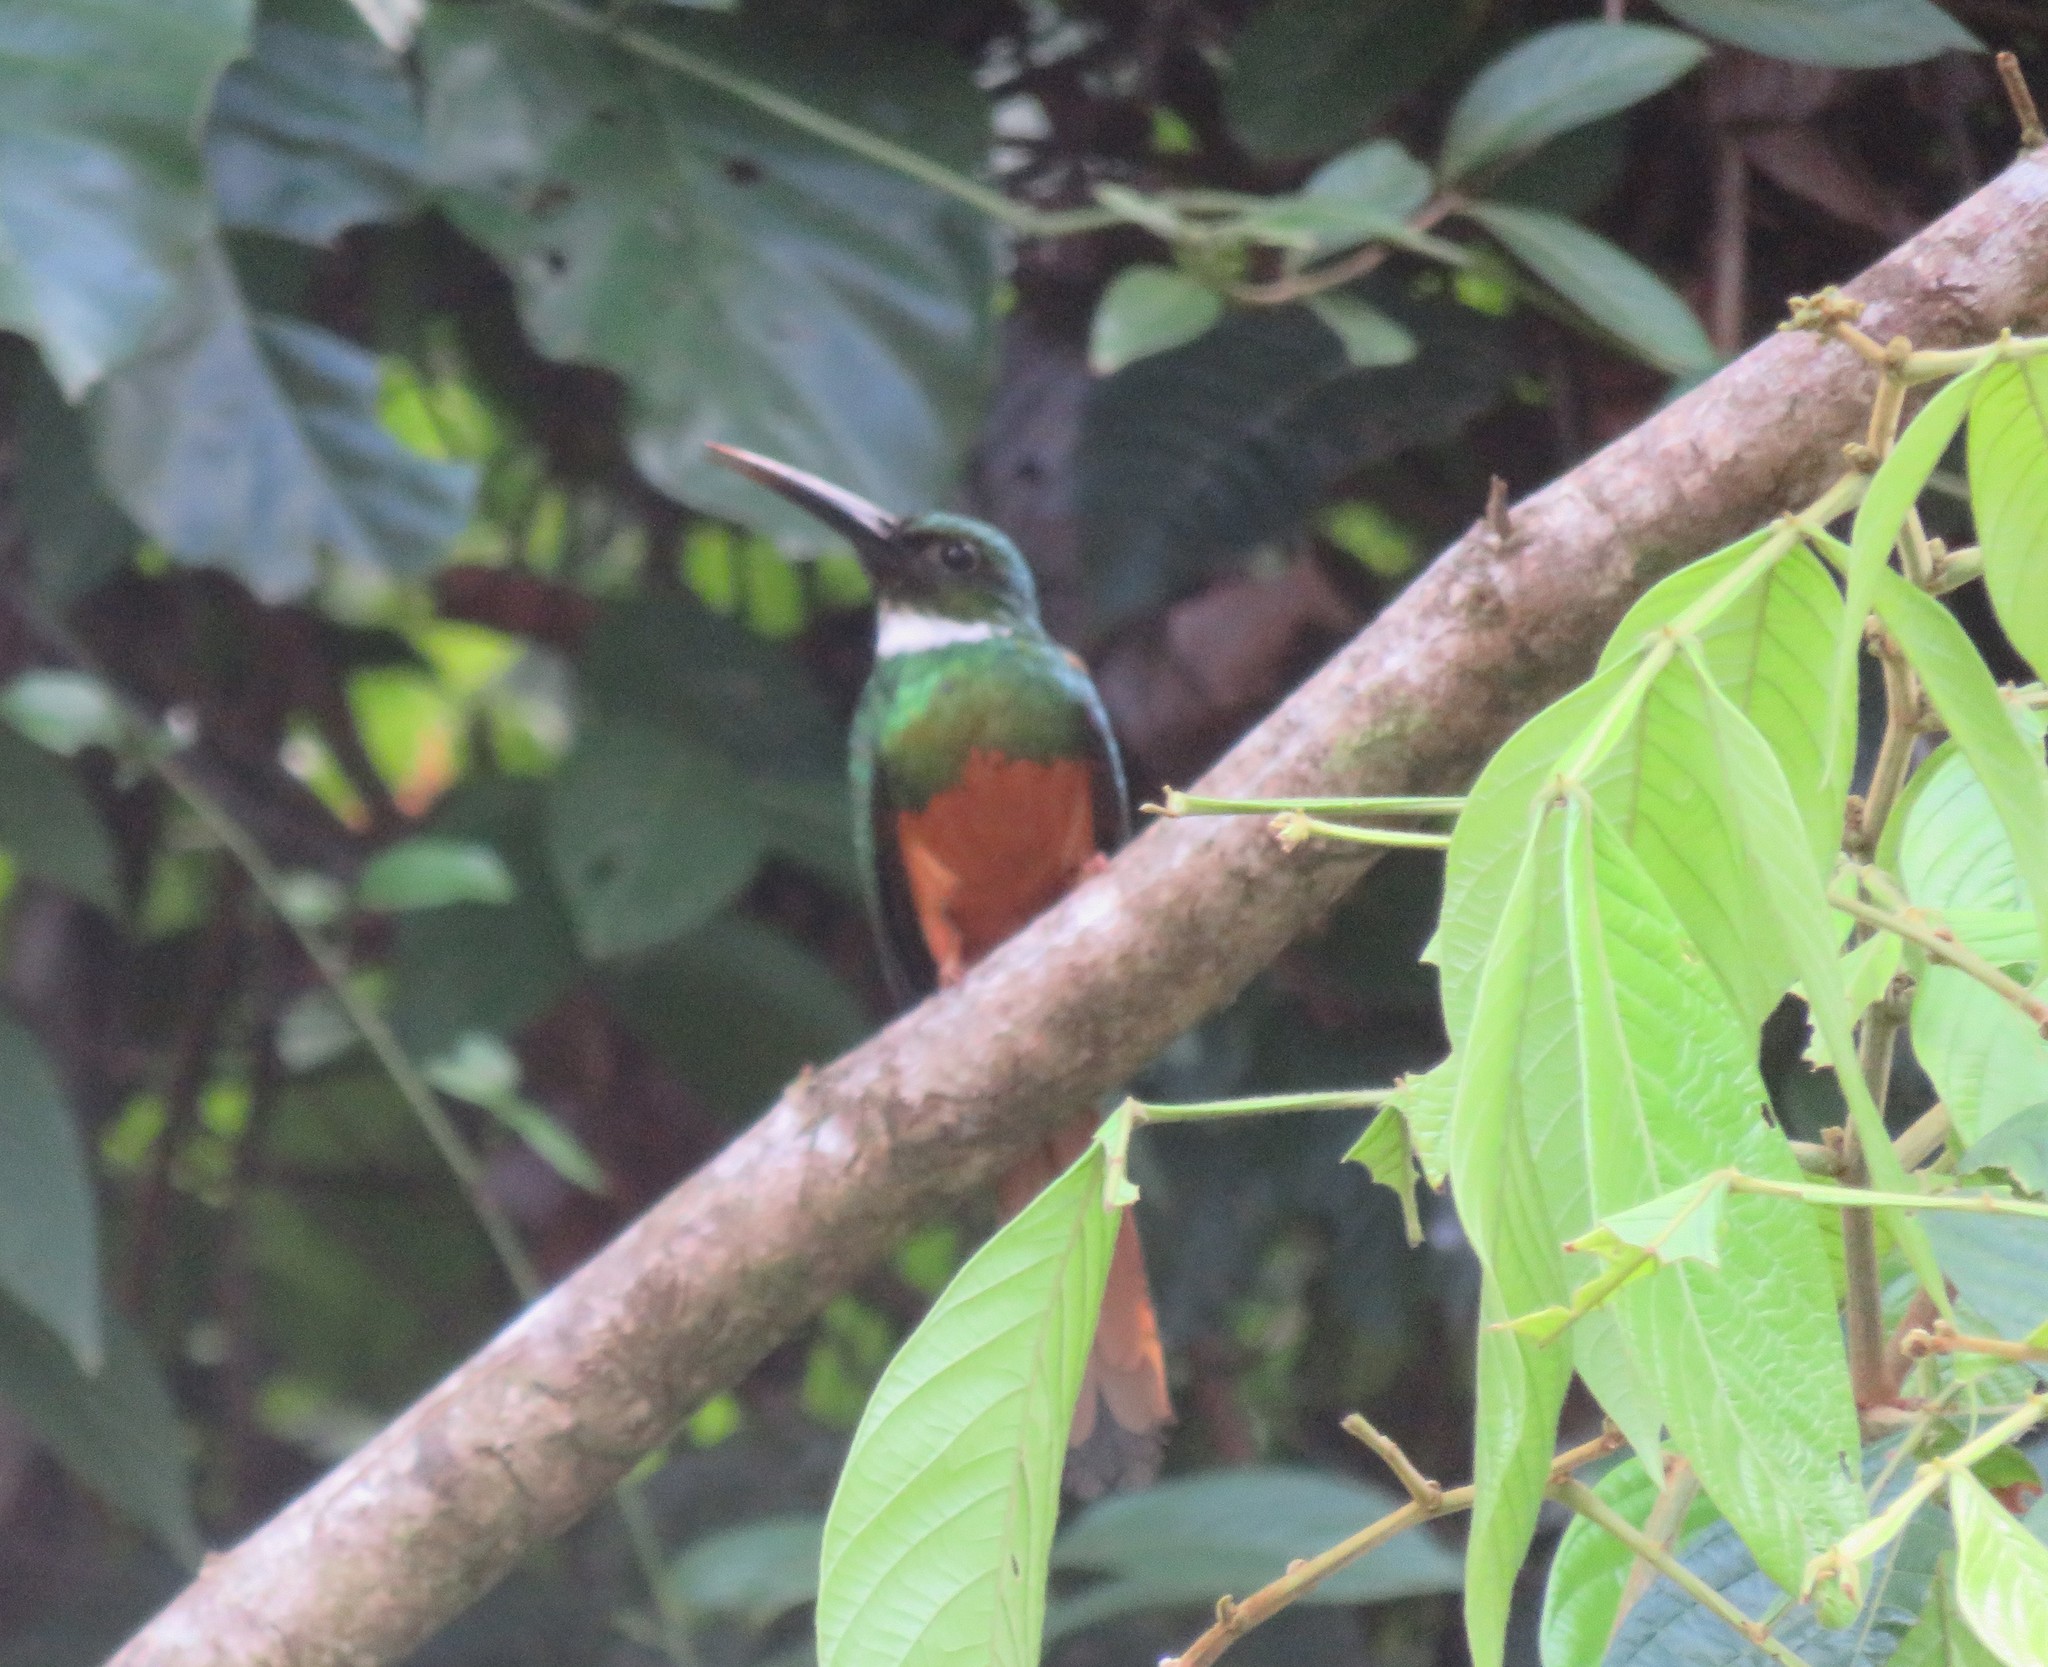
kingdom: Animalia
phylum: Chordata
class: Aves
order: Piciformes
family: Galbulidae
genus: Galbula
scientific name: Galbula ruficauda
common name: Rufous-tailed jacamar
